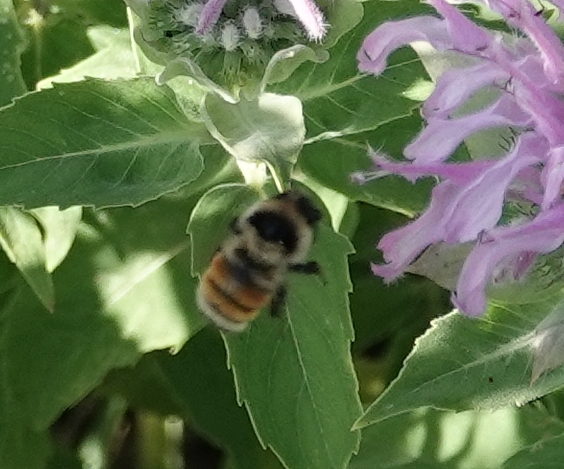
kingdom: Animalia
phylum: Arthropoda
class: Insecta
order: Hymenoptera
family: Apidae
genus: Bombus
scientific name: Bombus huntii
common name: Hunt bumble bee
